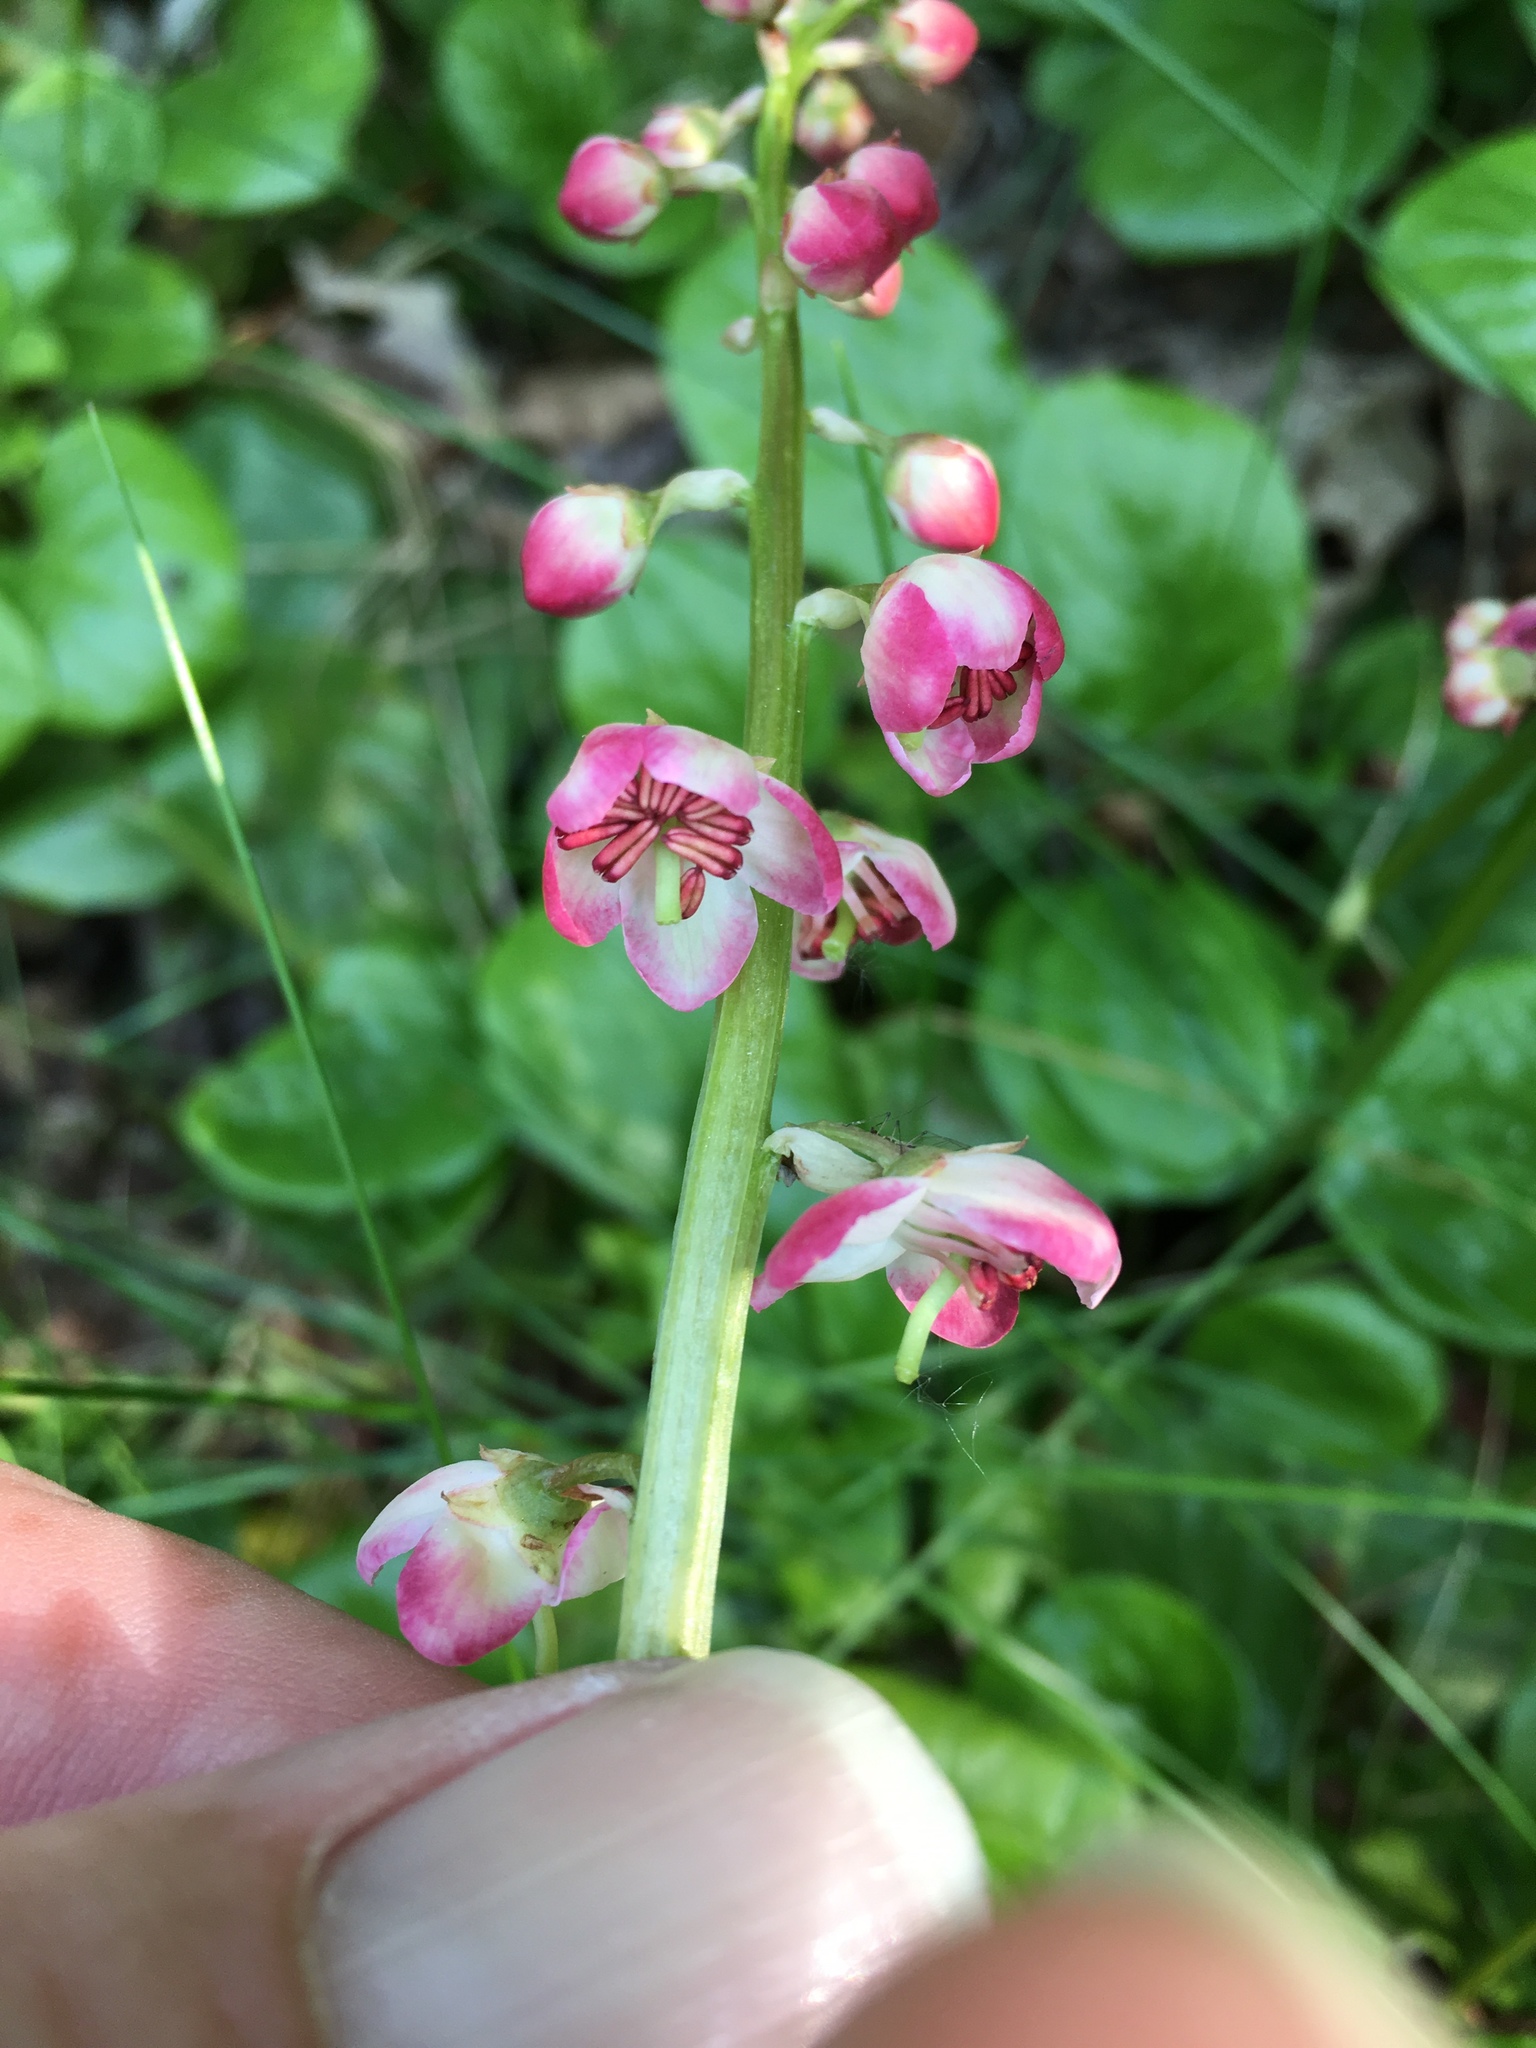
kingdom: Plantae
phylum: Tracheophyta
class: Magnoliopsida
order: Ericales
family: Ericaceae
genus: Pyrola
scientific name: Pyrola asarifolia
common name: Bog wintergreen
